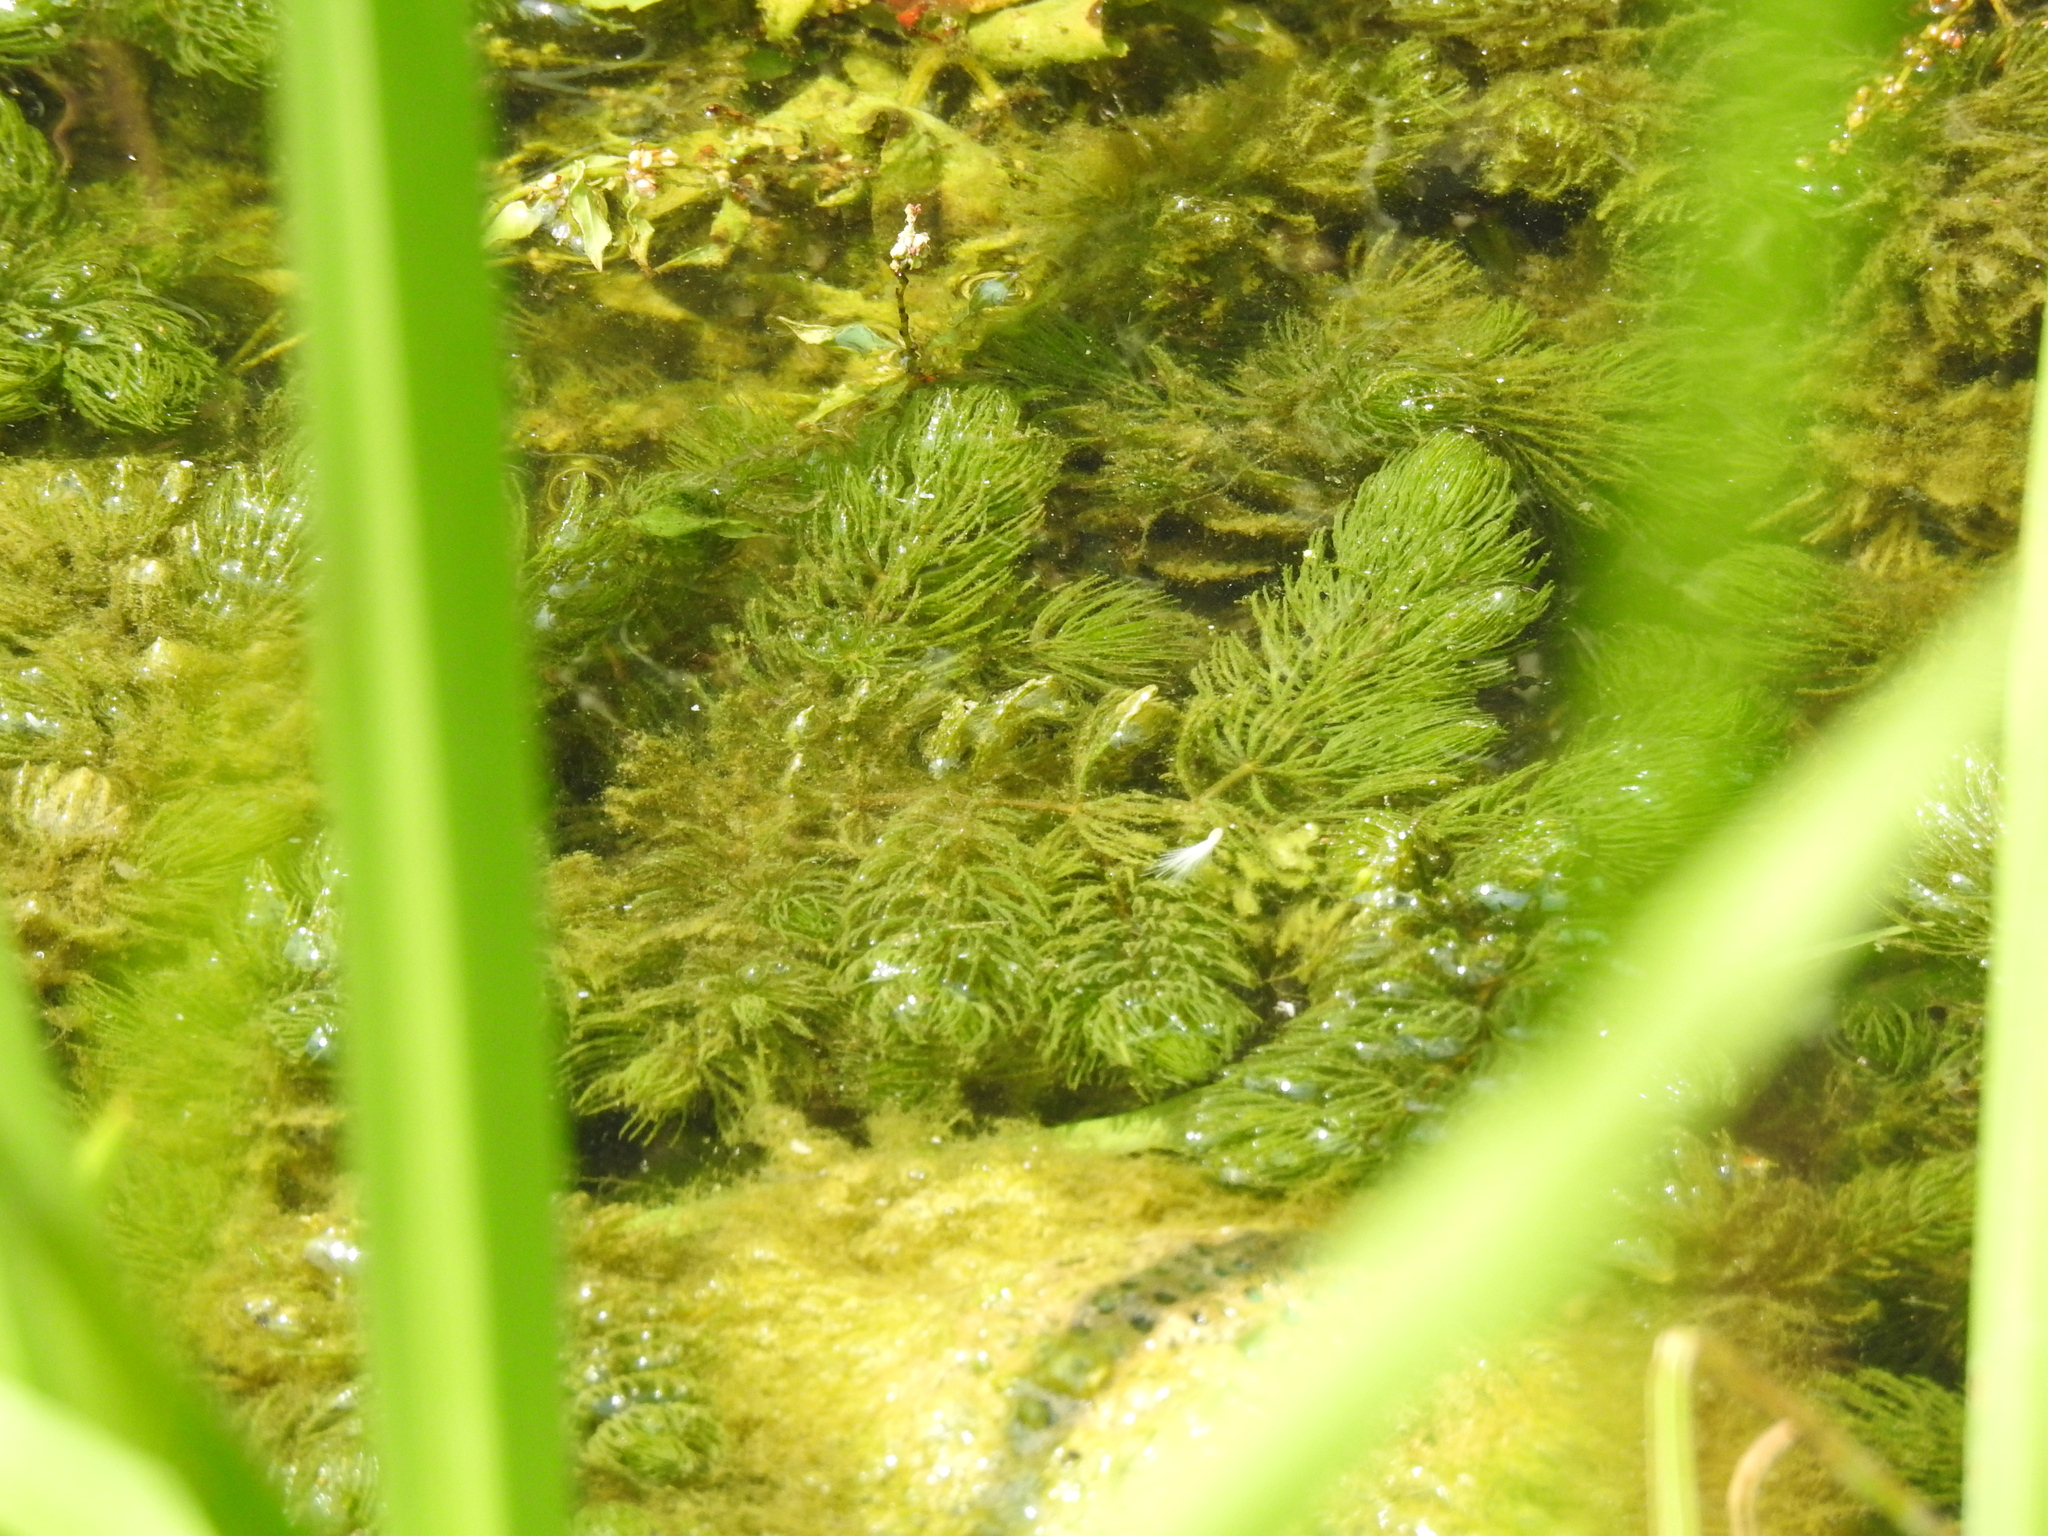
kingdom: Plantae
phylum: Tracheophyta
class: Magnoliopsida
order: Ceratophyllales
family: Ceratophyllaceae
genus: Ceratophyllum
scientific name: Ceratophyllum demersum
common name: Rigid hornwort
